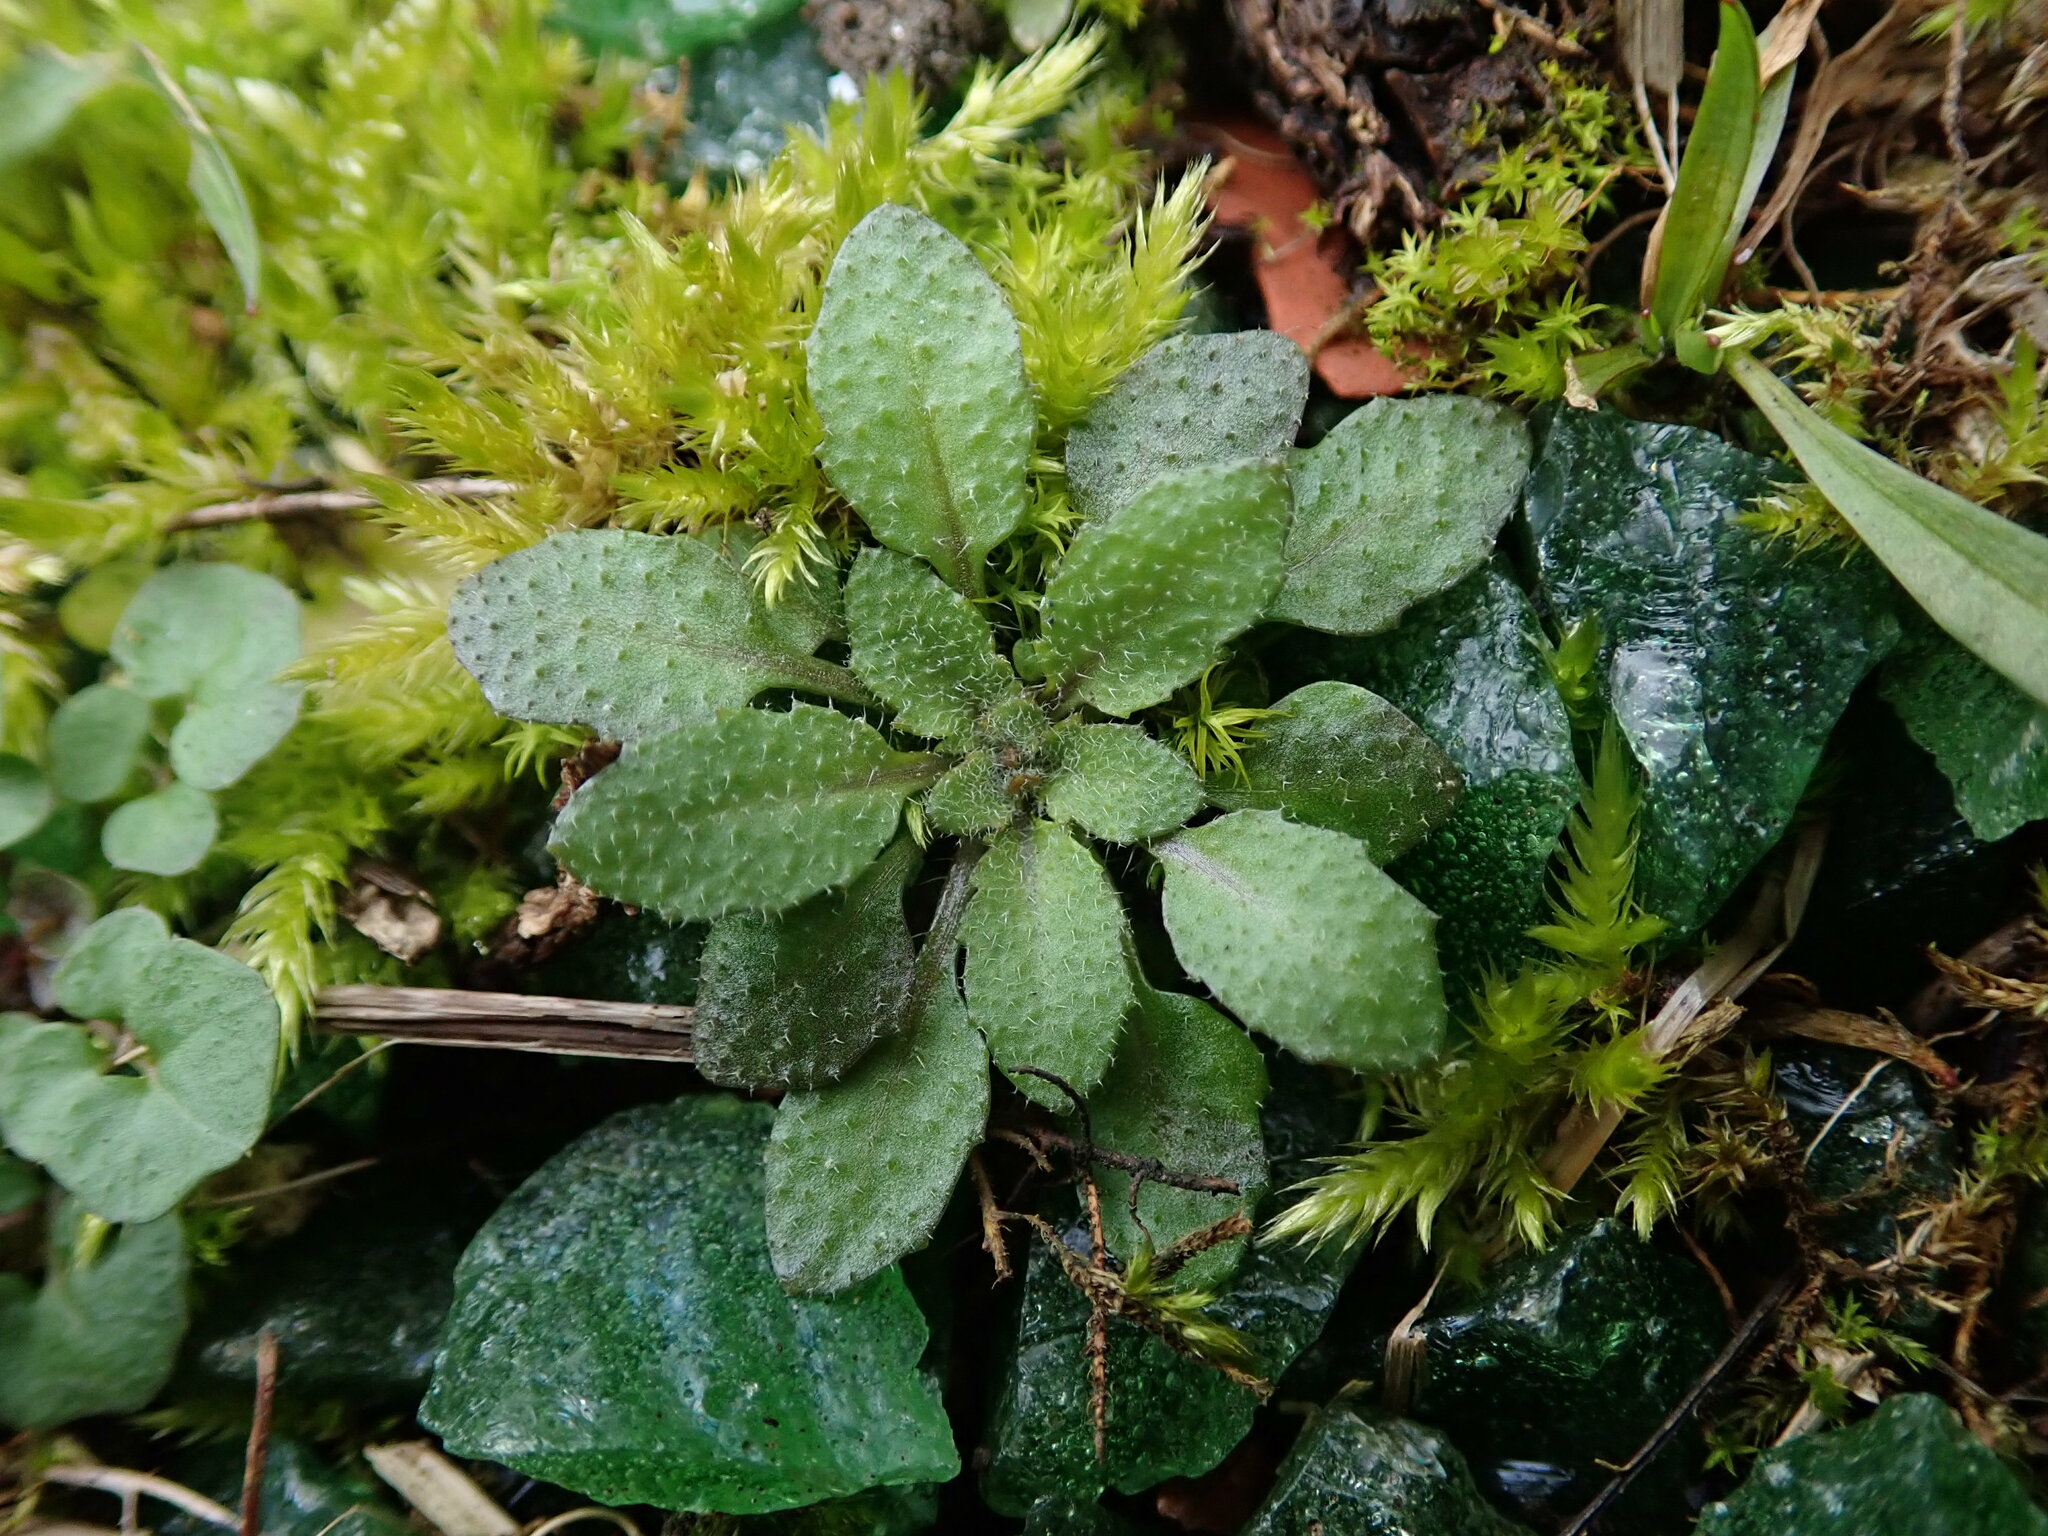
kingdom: Plantae
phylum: Tracheophyta
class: Magnoliopsida
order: Brassicales
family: Brassicaceae
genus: Arabidopsis
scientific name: Arabidopsis thaliana
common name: Thale cress
